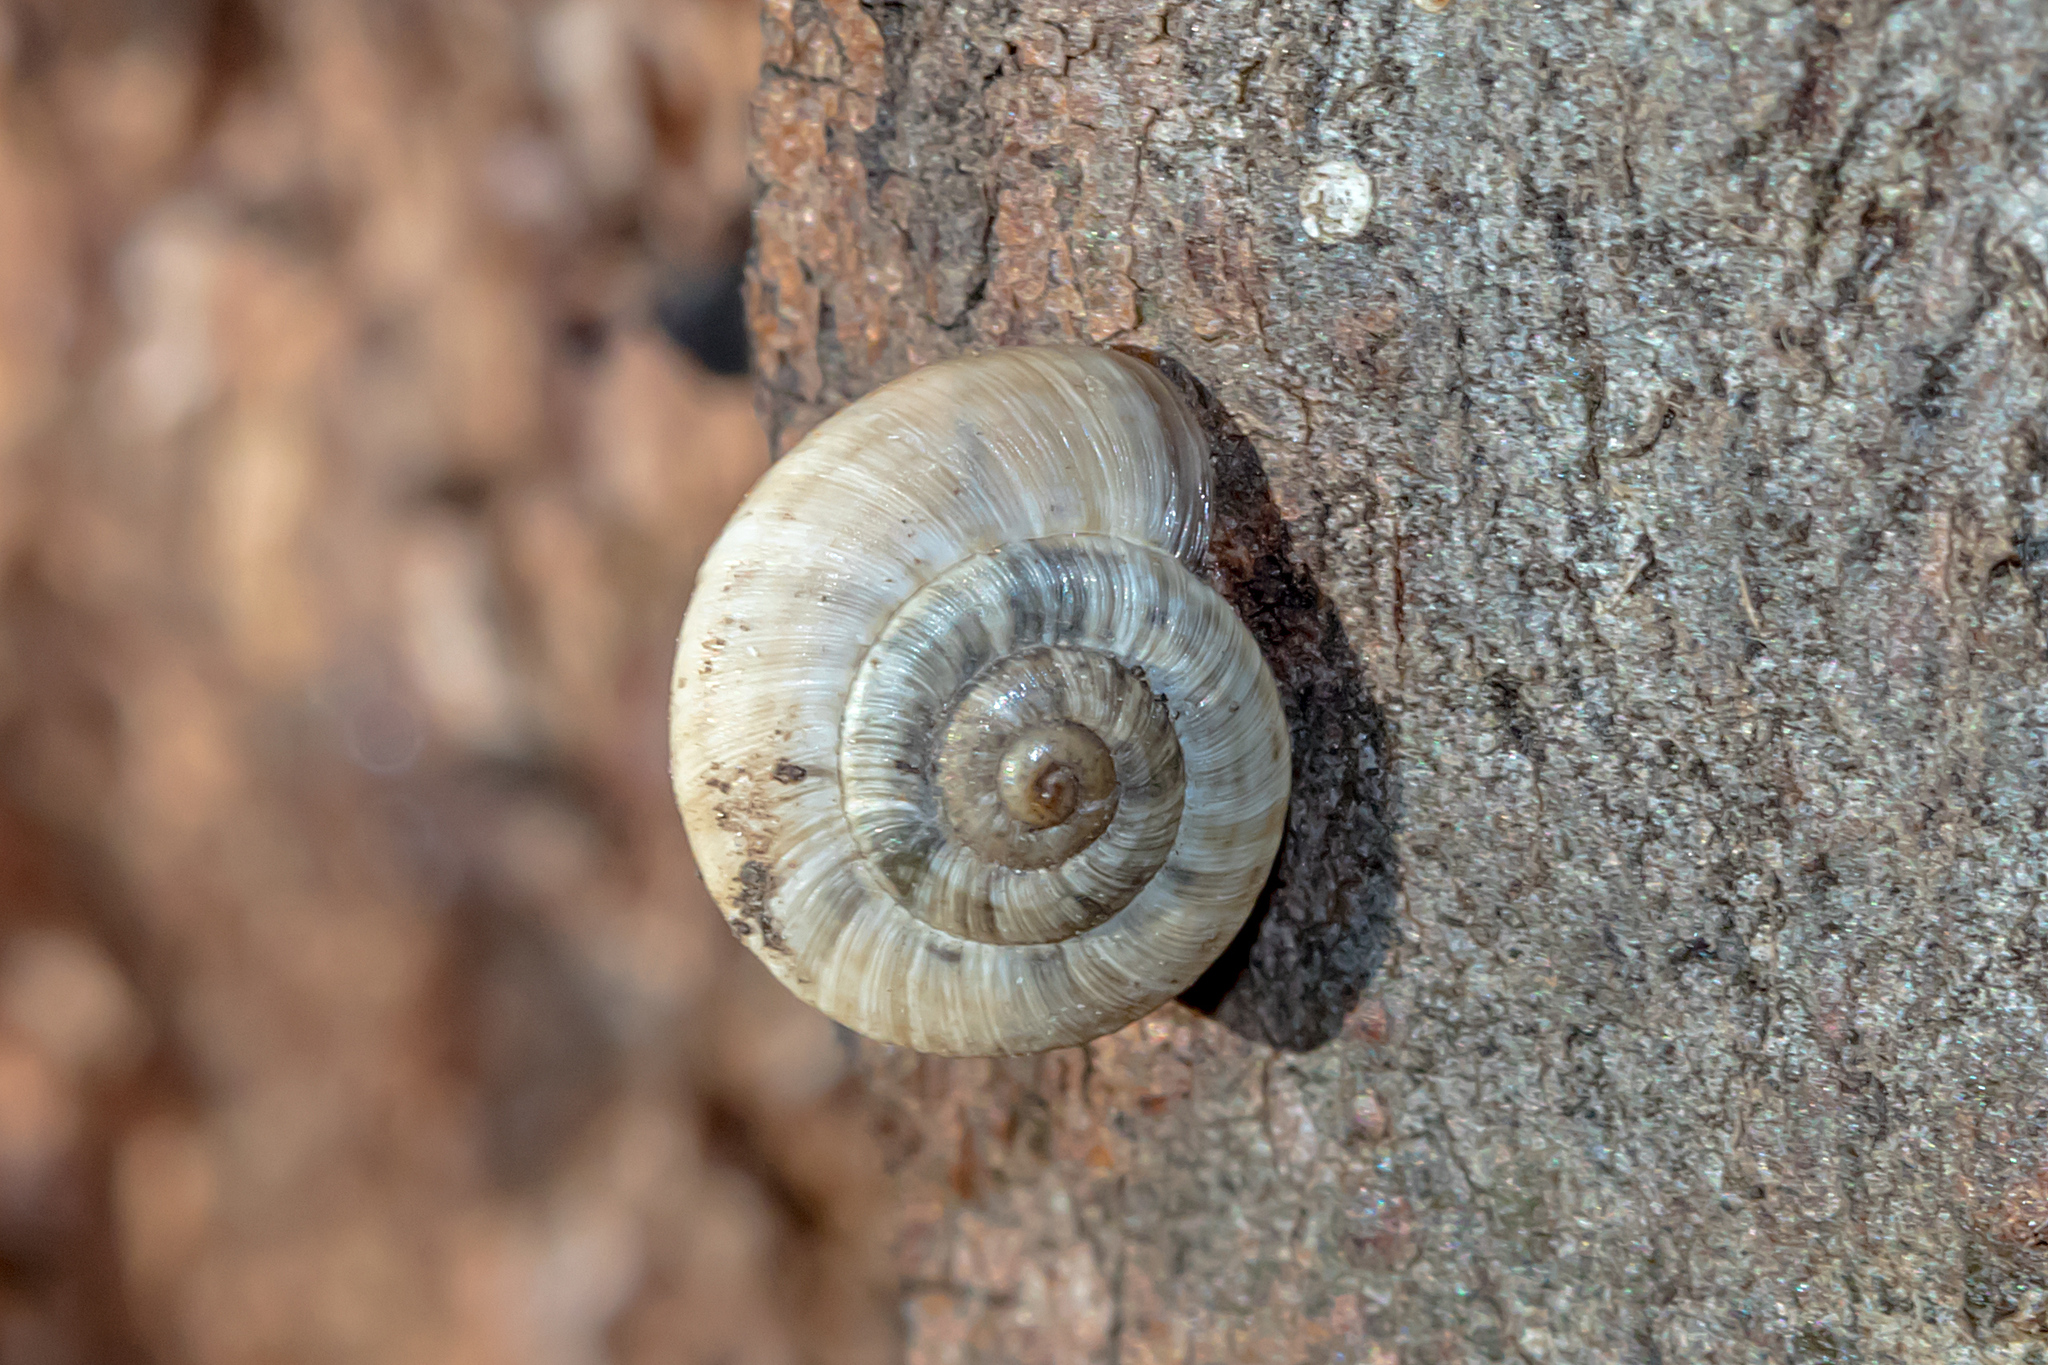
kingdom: Animalia
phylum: Mollusca
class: Gastropoda
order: Stylommatophora
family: Geomitridae
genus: Cernuella
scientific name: Cernuella virgata
